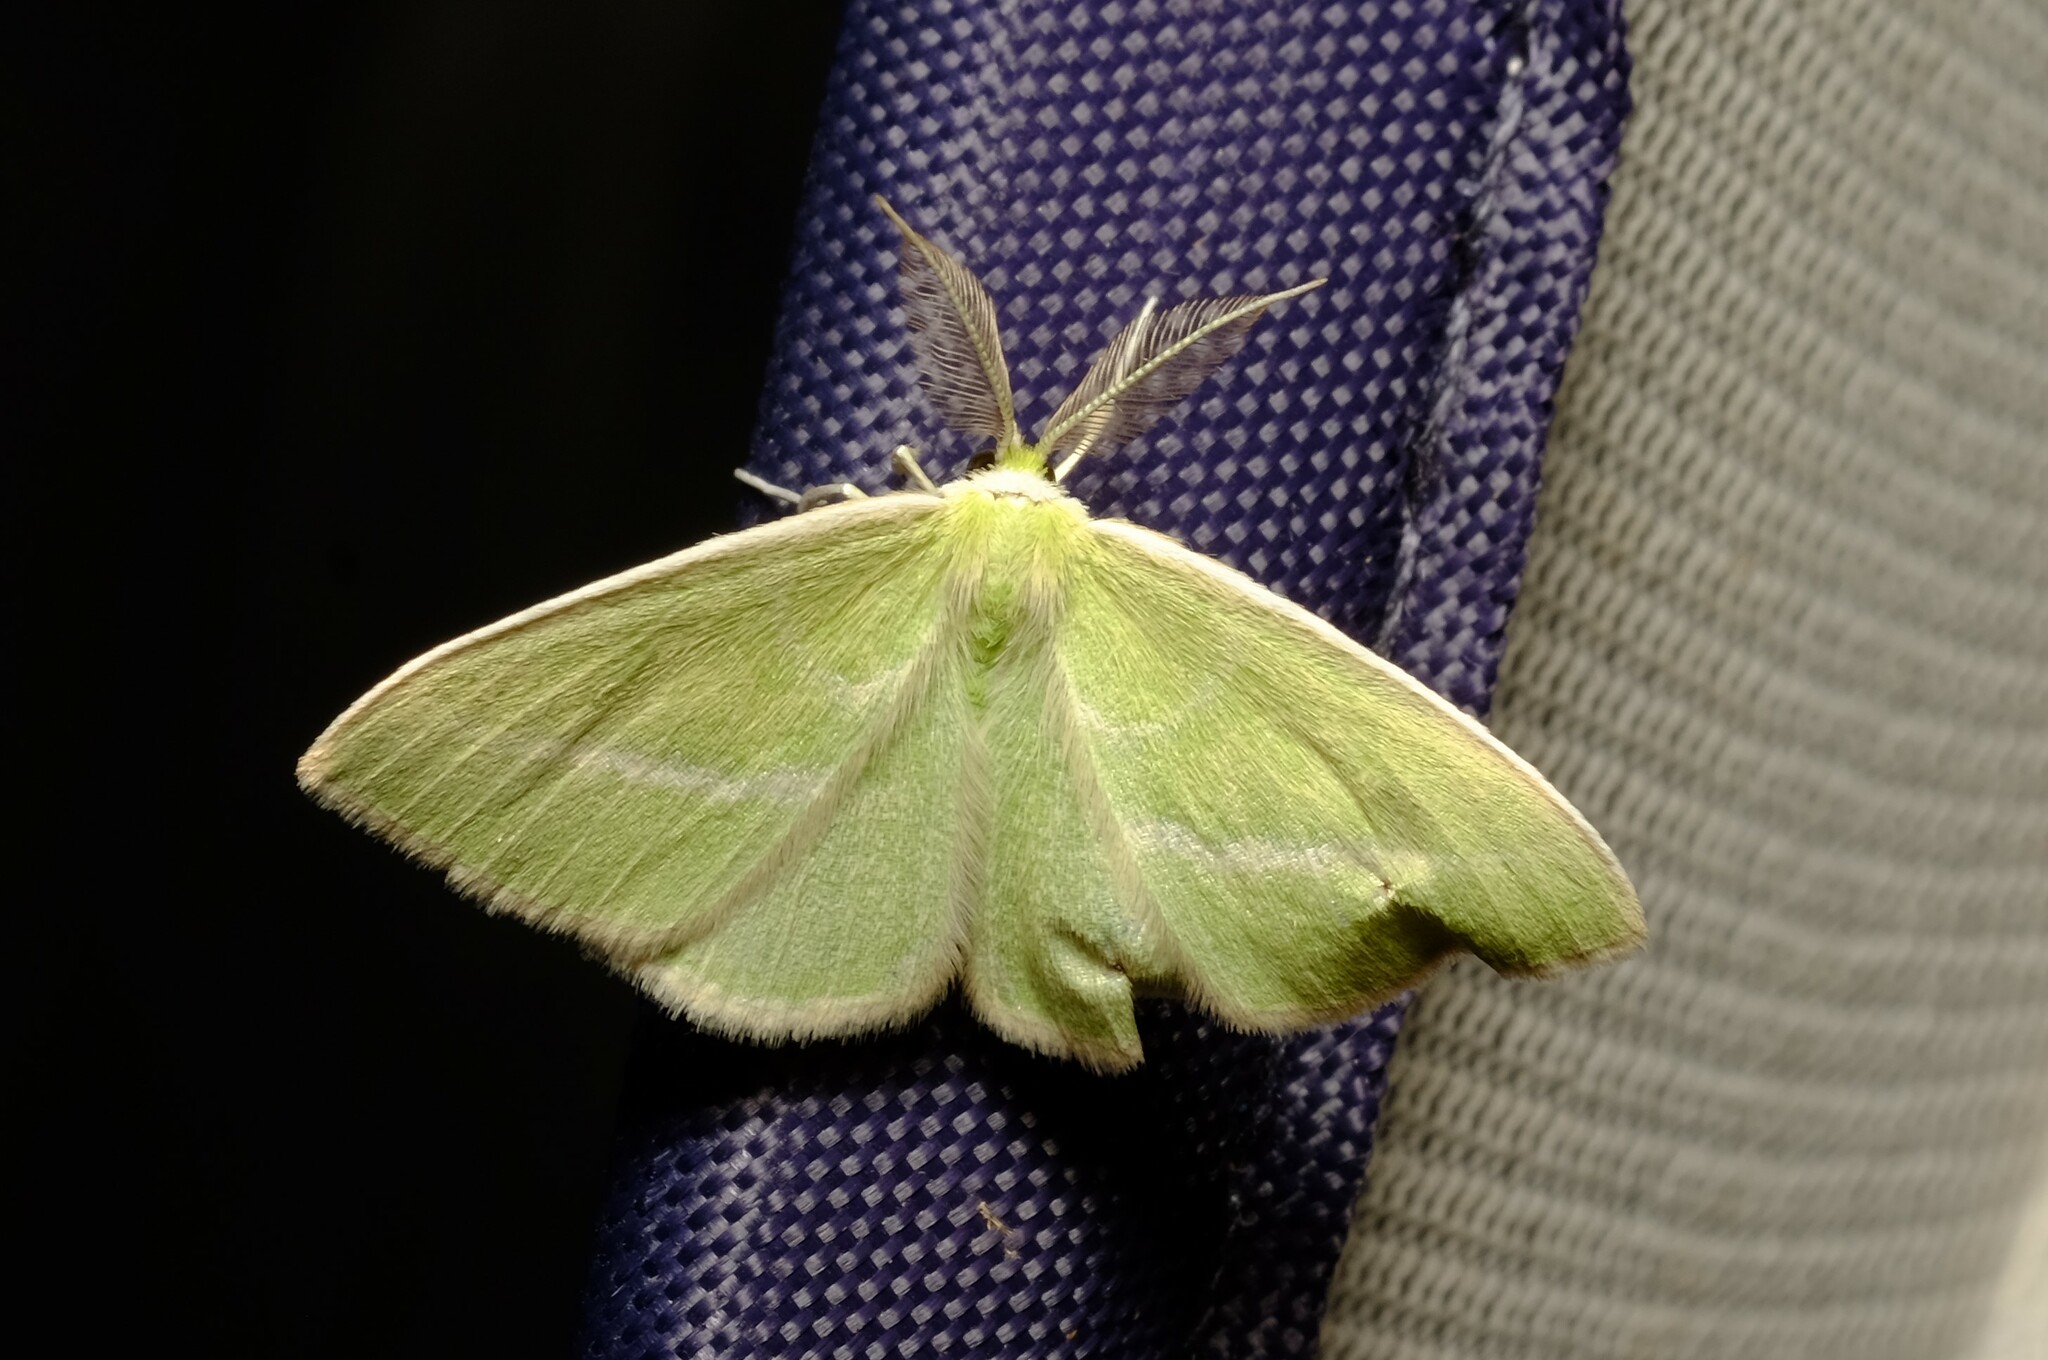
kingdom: Animalia
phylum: Arthropoda
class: Insecta
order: Lepidoptera
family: Geometridae
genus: Iulops
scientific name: Iulops argocrana
